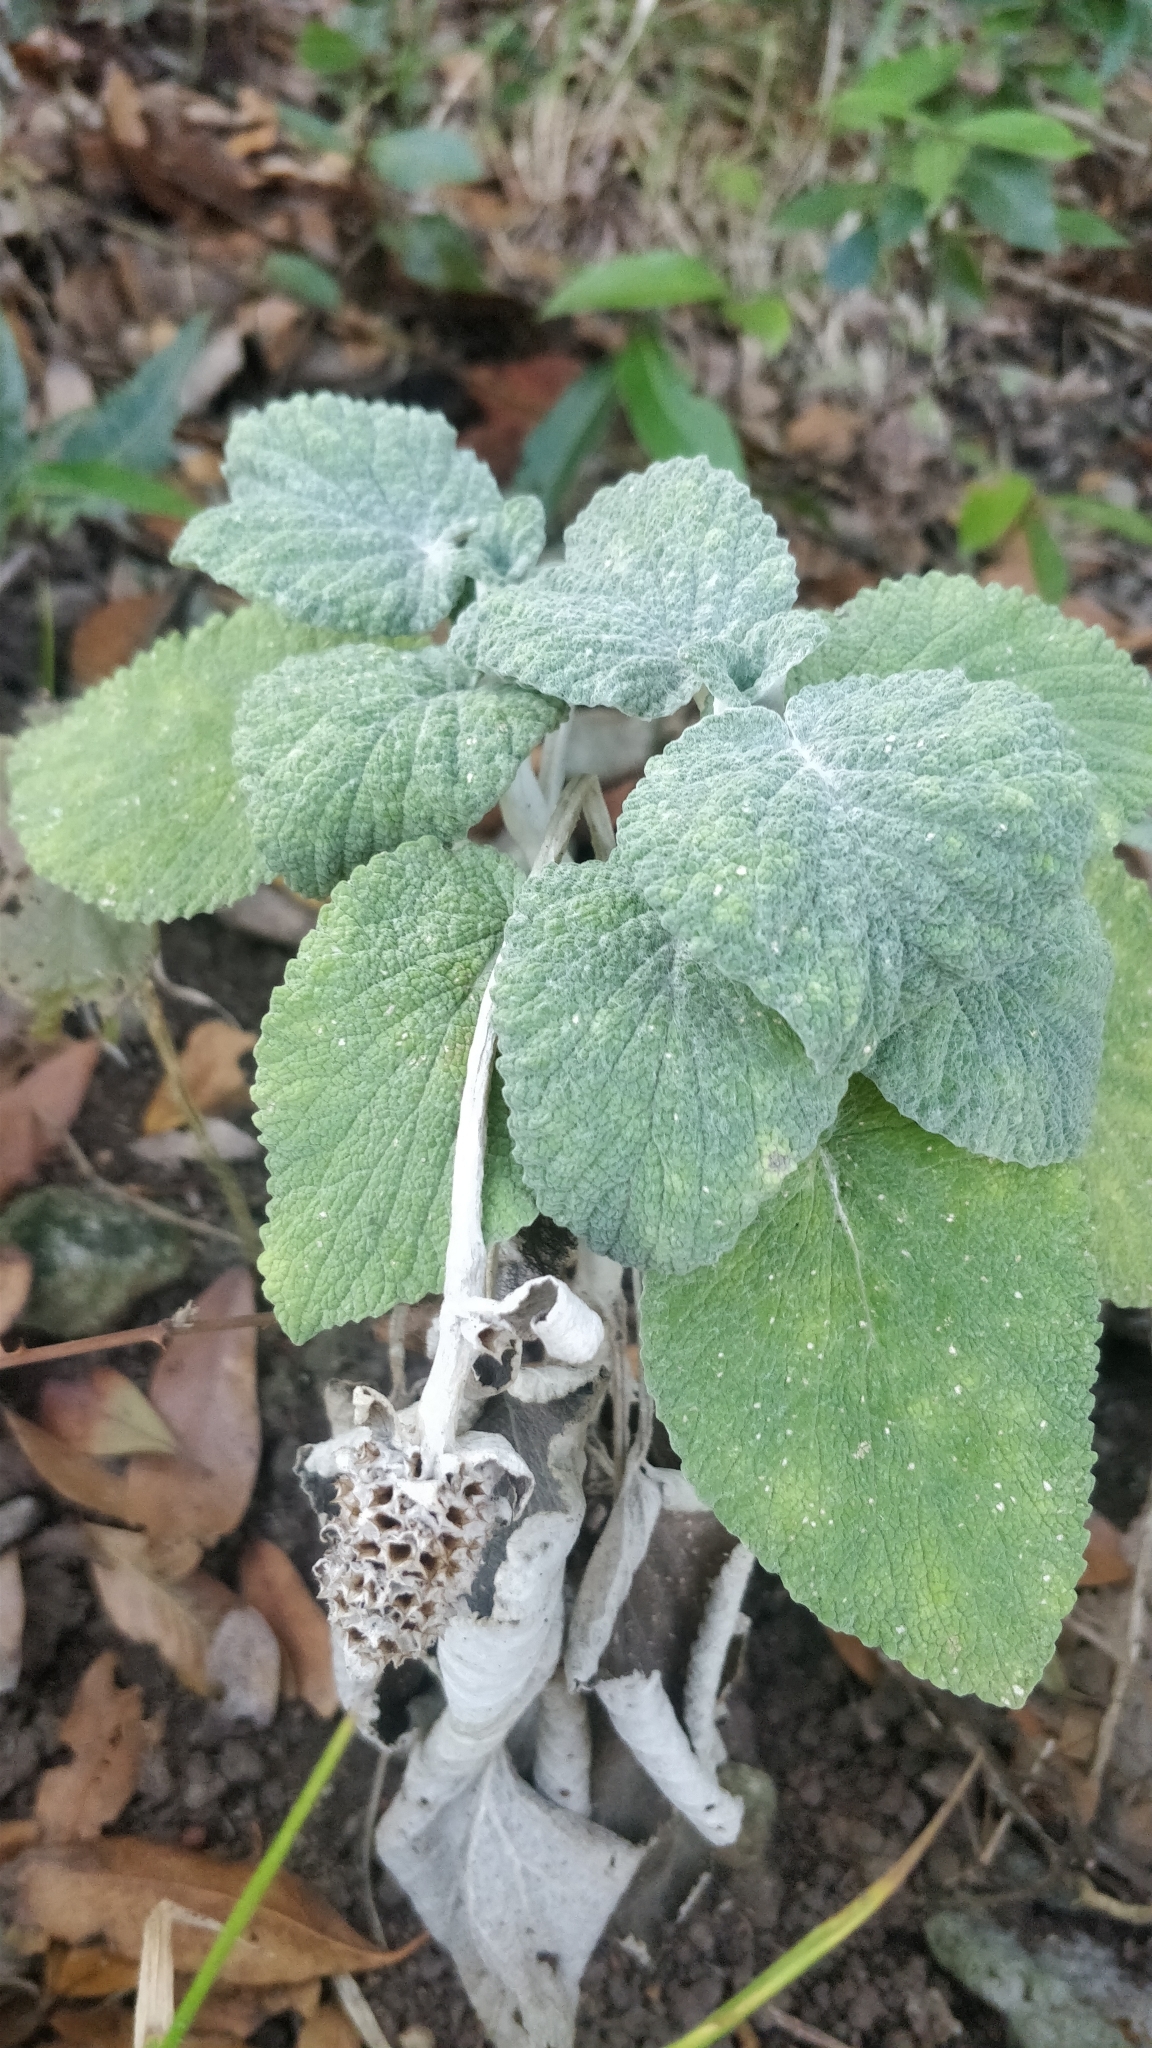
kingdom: Plantae
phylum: Tracheophyta
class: Magnoliopsida
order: Lamiales
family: Lamiaceae
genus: Sideritis
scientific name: Sideritis macrostachyos
